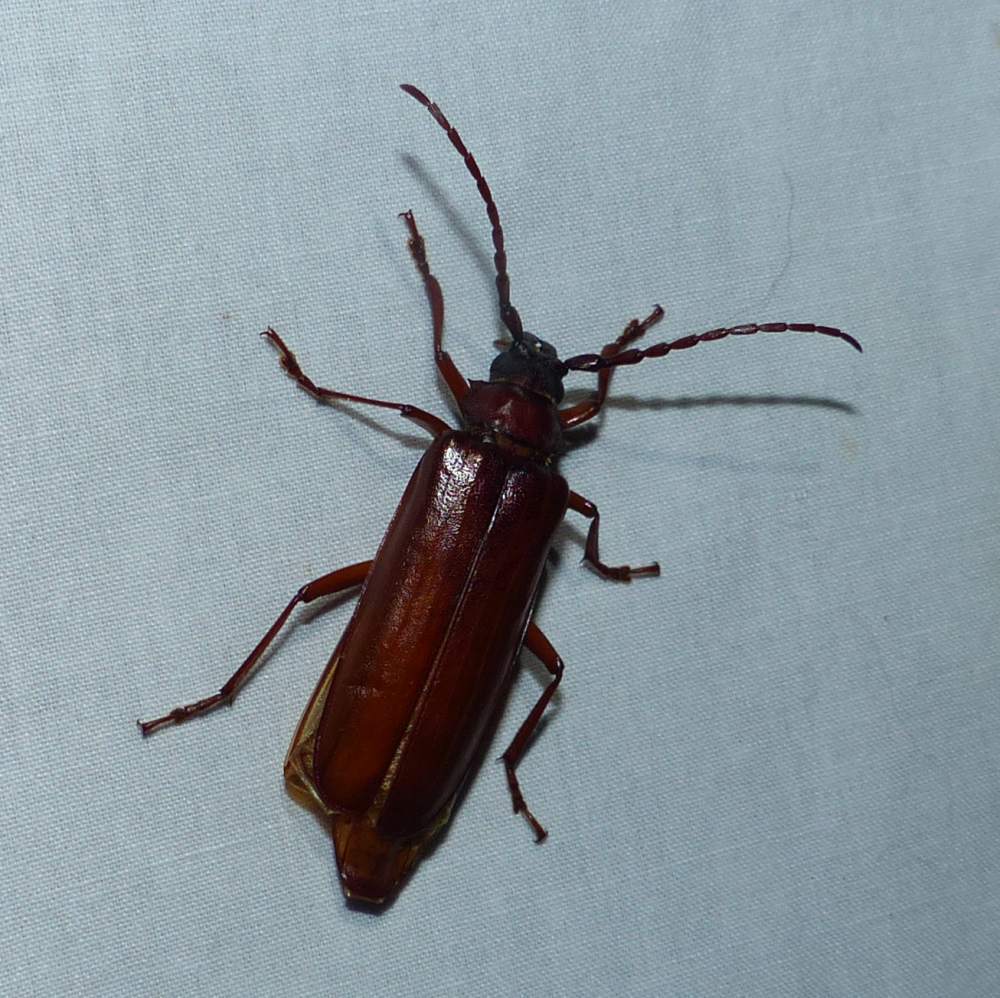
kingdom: Animalia
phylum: Arthropoda
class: Insecta
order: Coleoptera
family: Cerambycidae
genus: Orthosoma
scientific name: Orthosoma brunneum
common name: Brown prionid beetle
